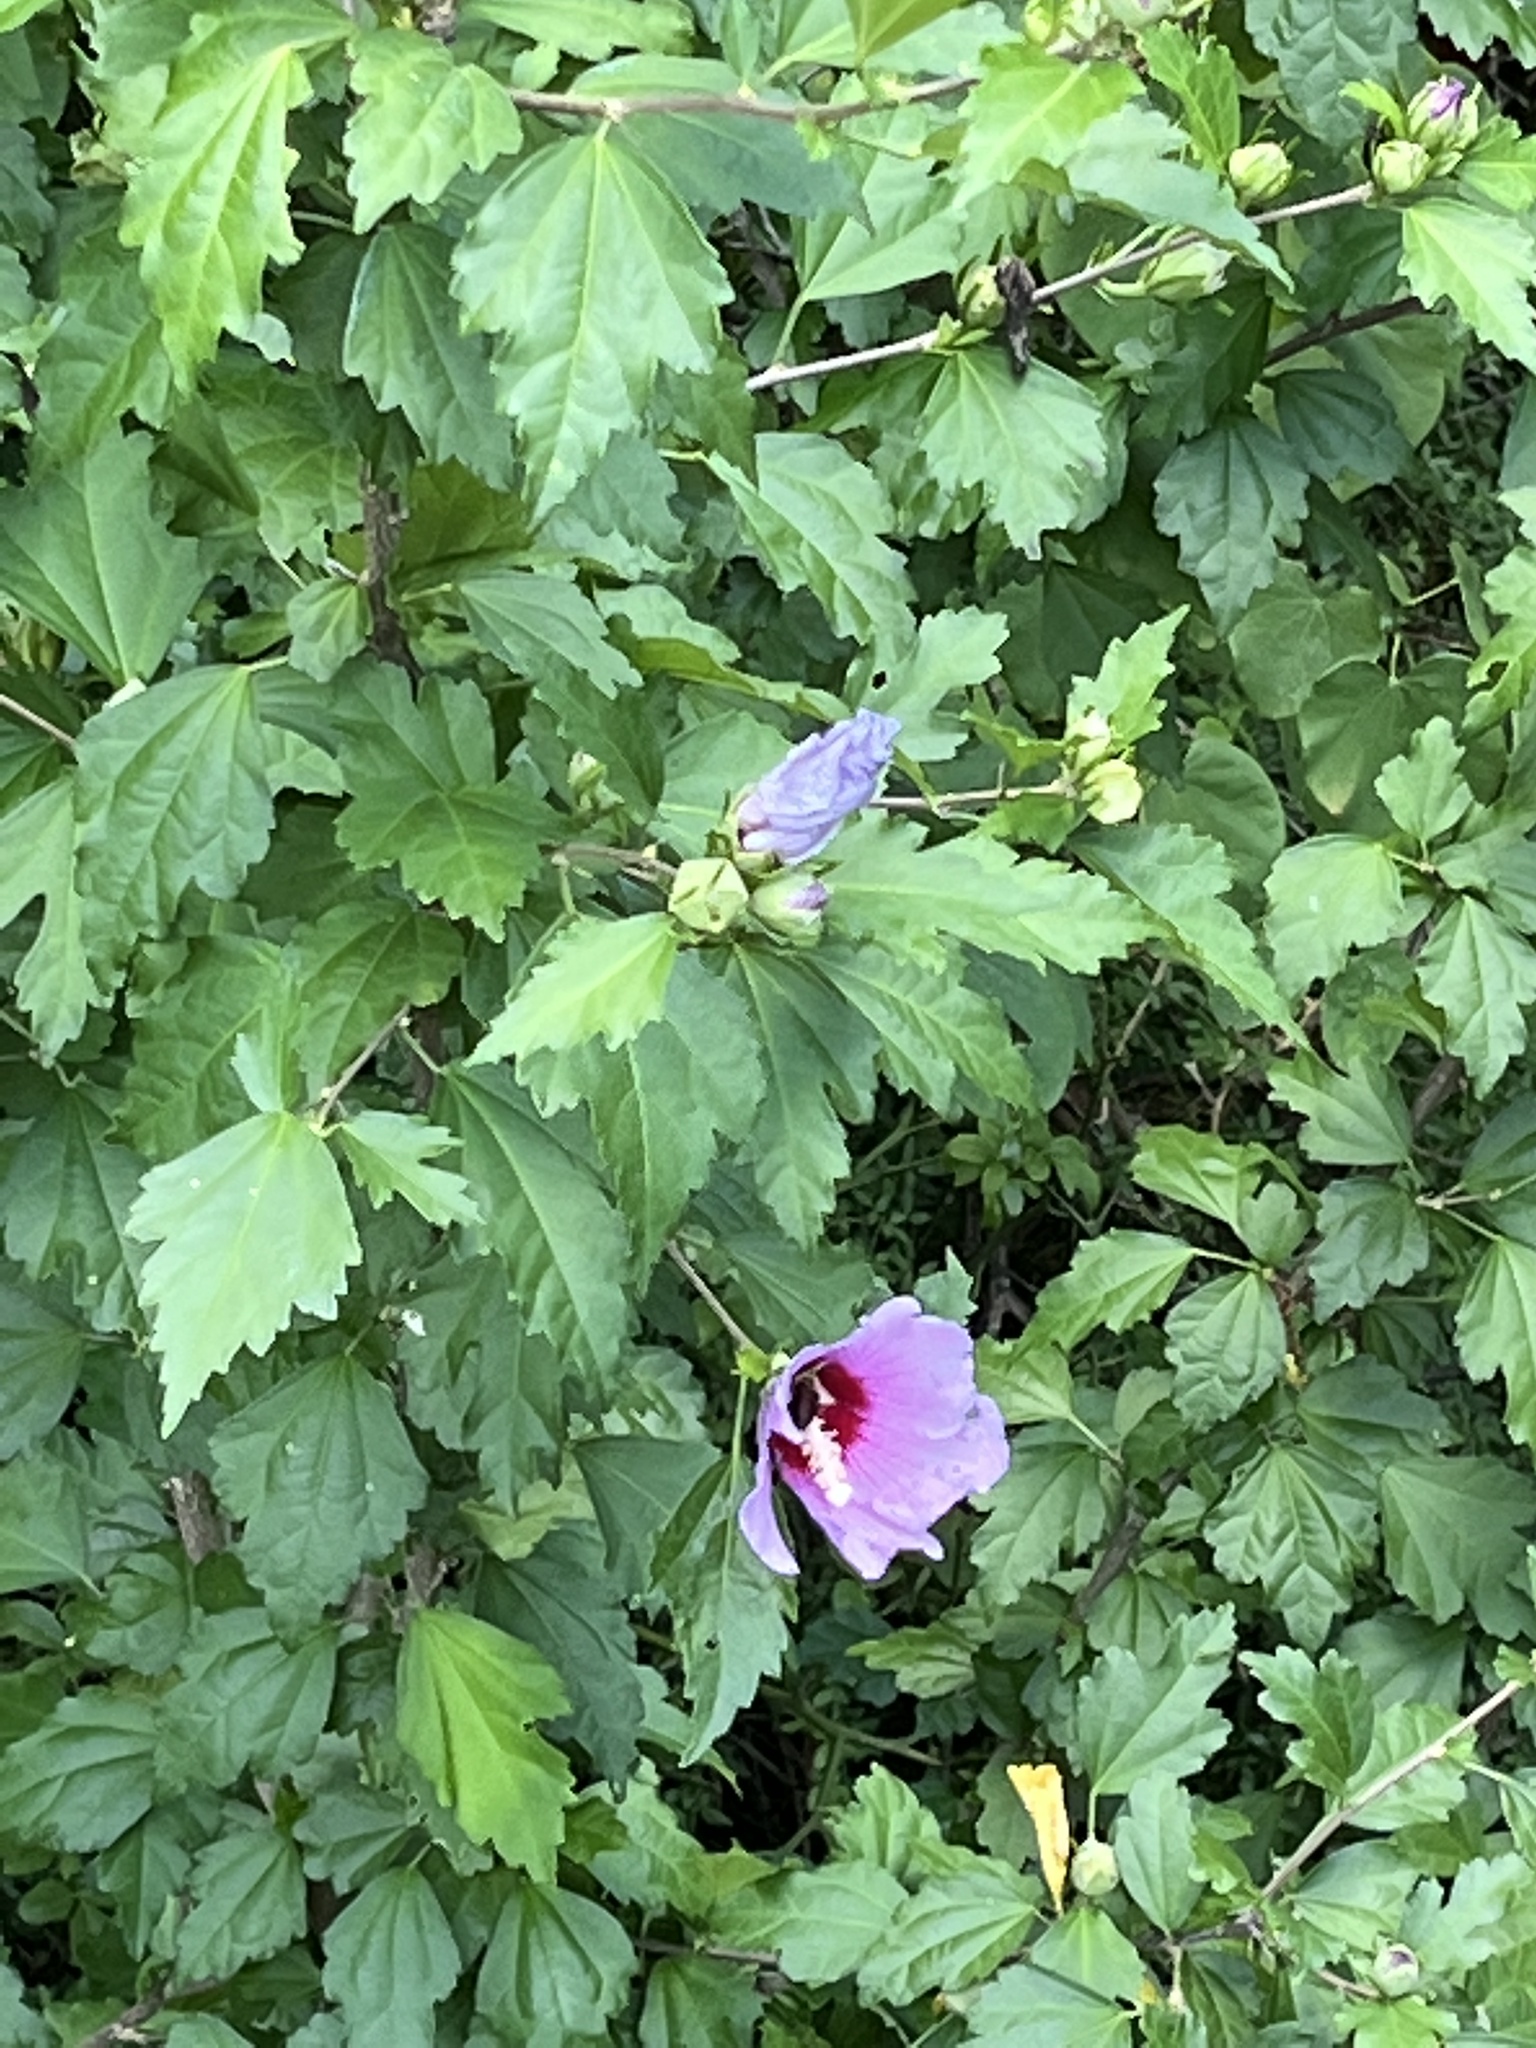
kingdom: Plantae
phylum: Tracheophyta
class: Magnoliopsida
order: Malvales
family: Malvaceae
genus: Hibiscus
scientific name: Hibiscus syriacus
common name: Syrian ketmia
